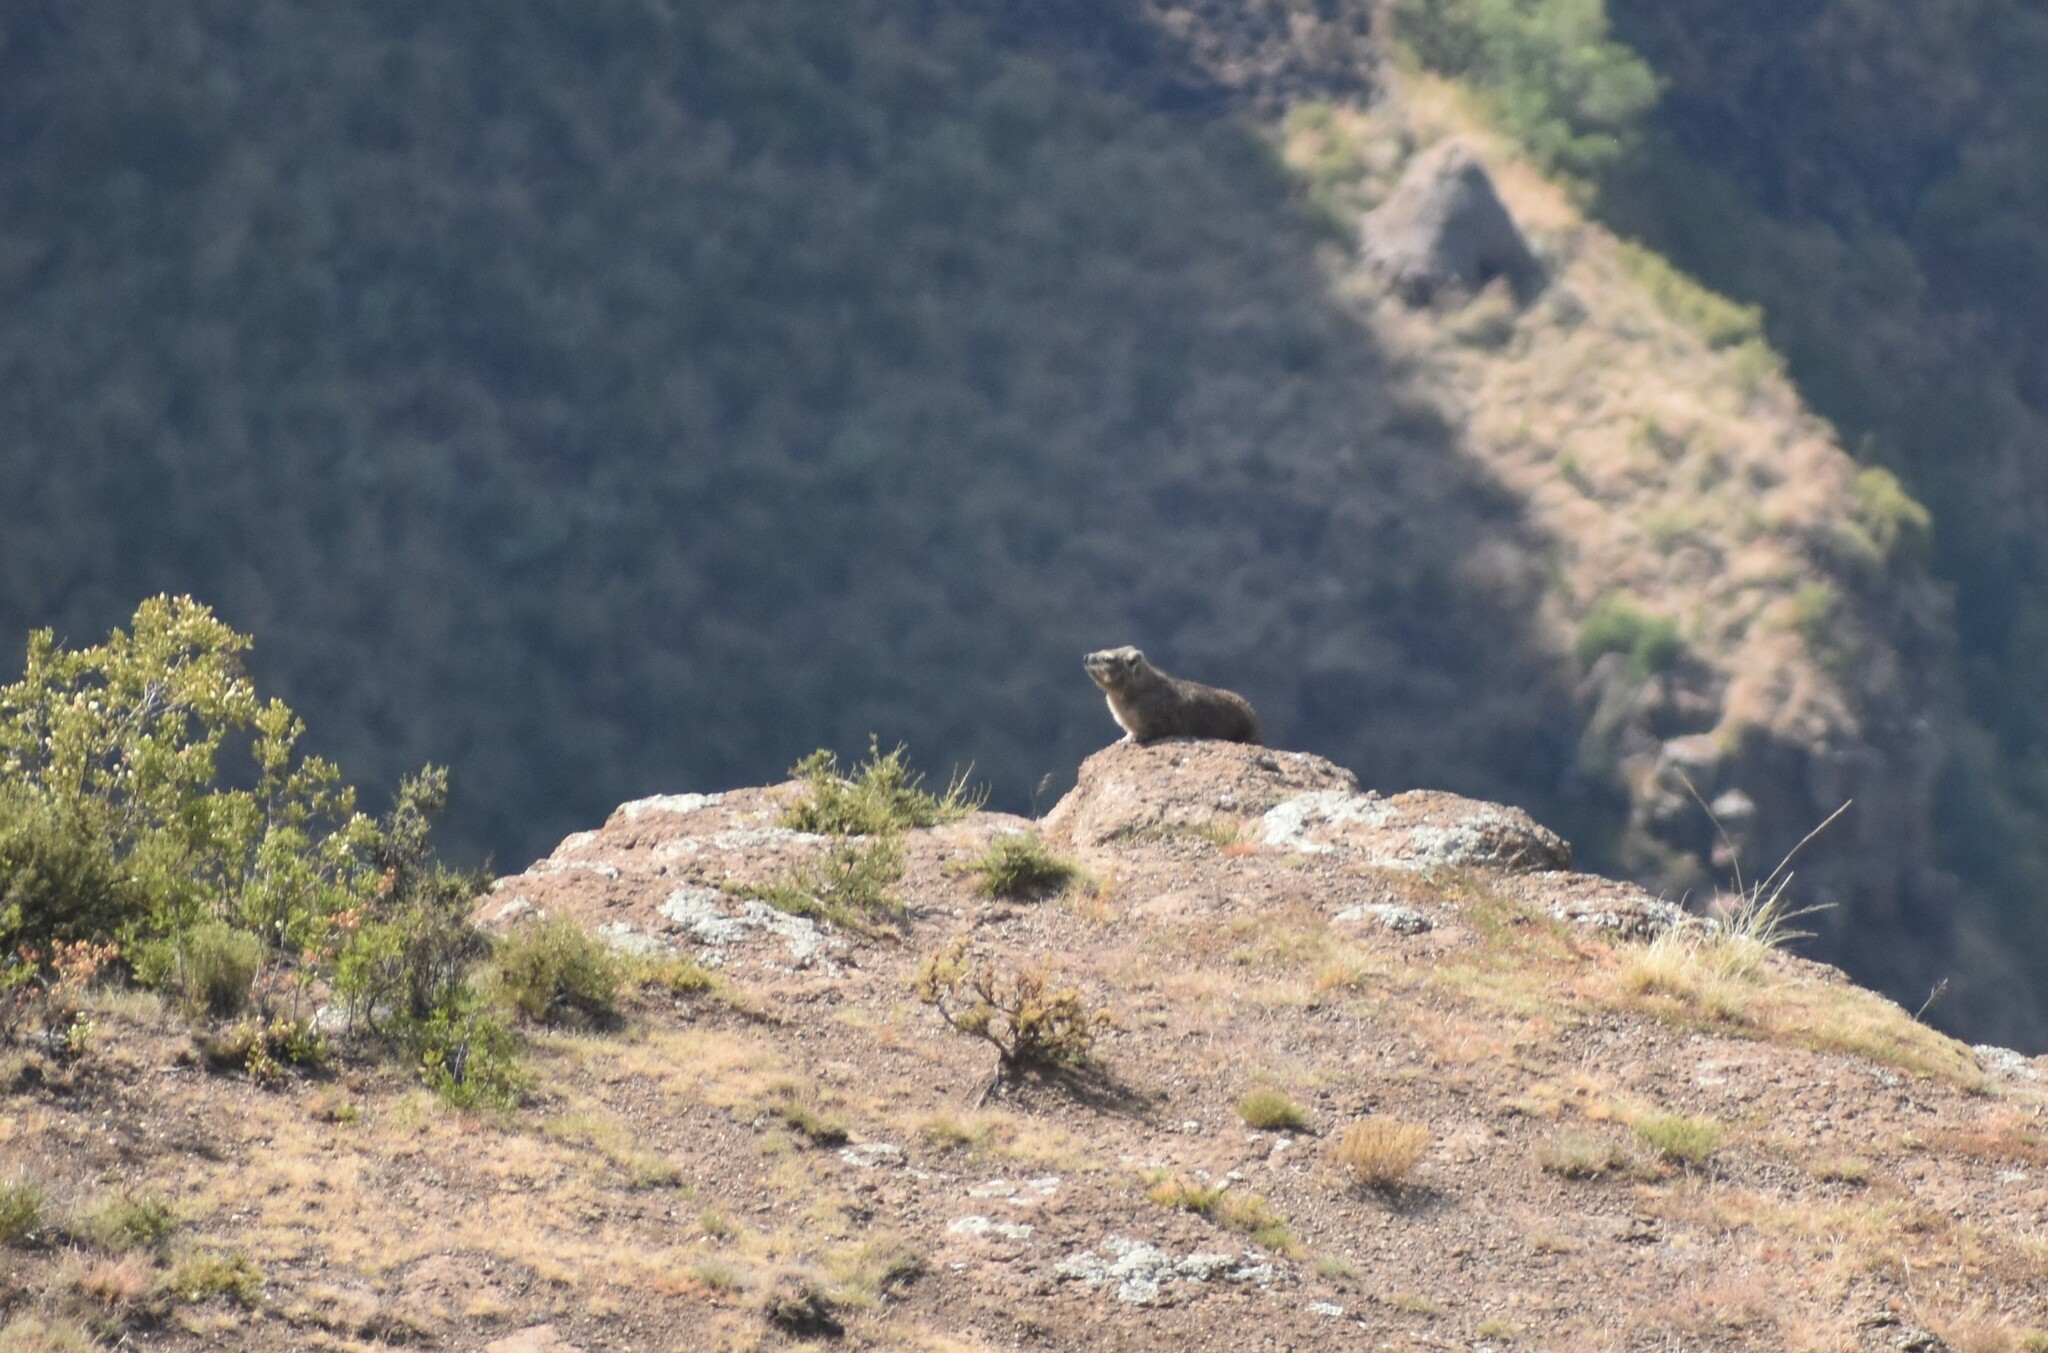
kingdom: Animalia
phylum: Chordata
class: Mammalia
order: Hyracoidea
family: Procaviidae
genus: Procavia
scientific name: Procavia capensis
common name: Rock hyrax
